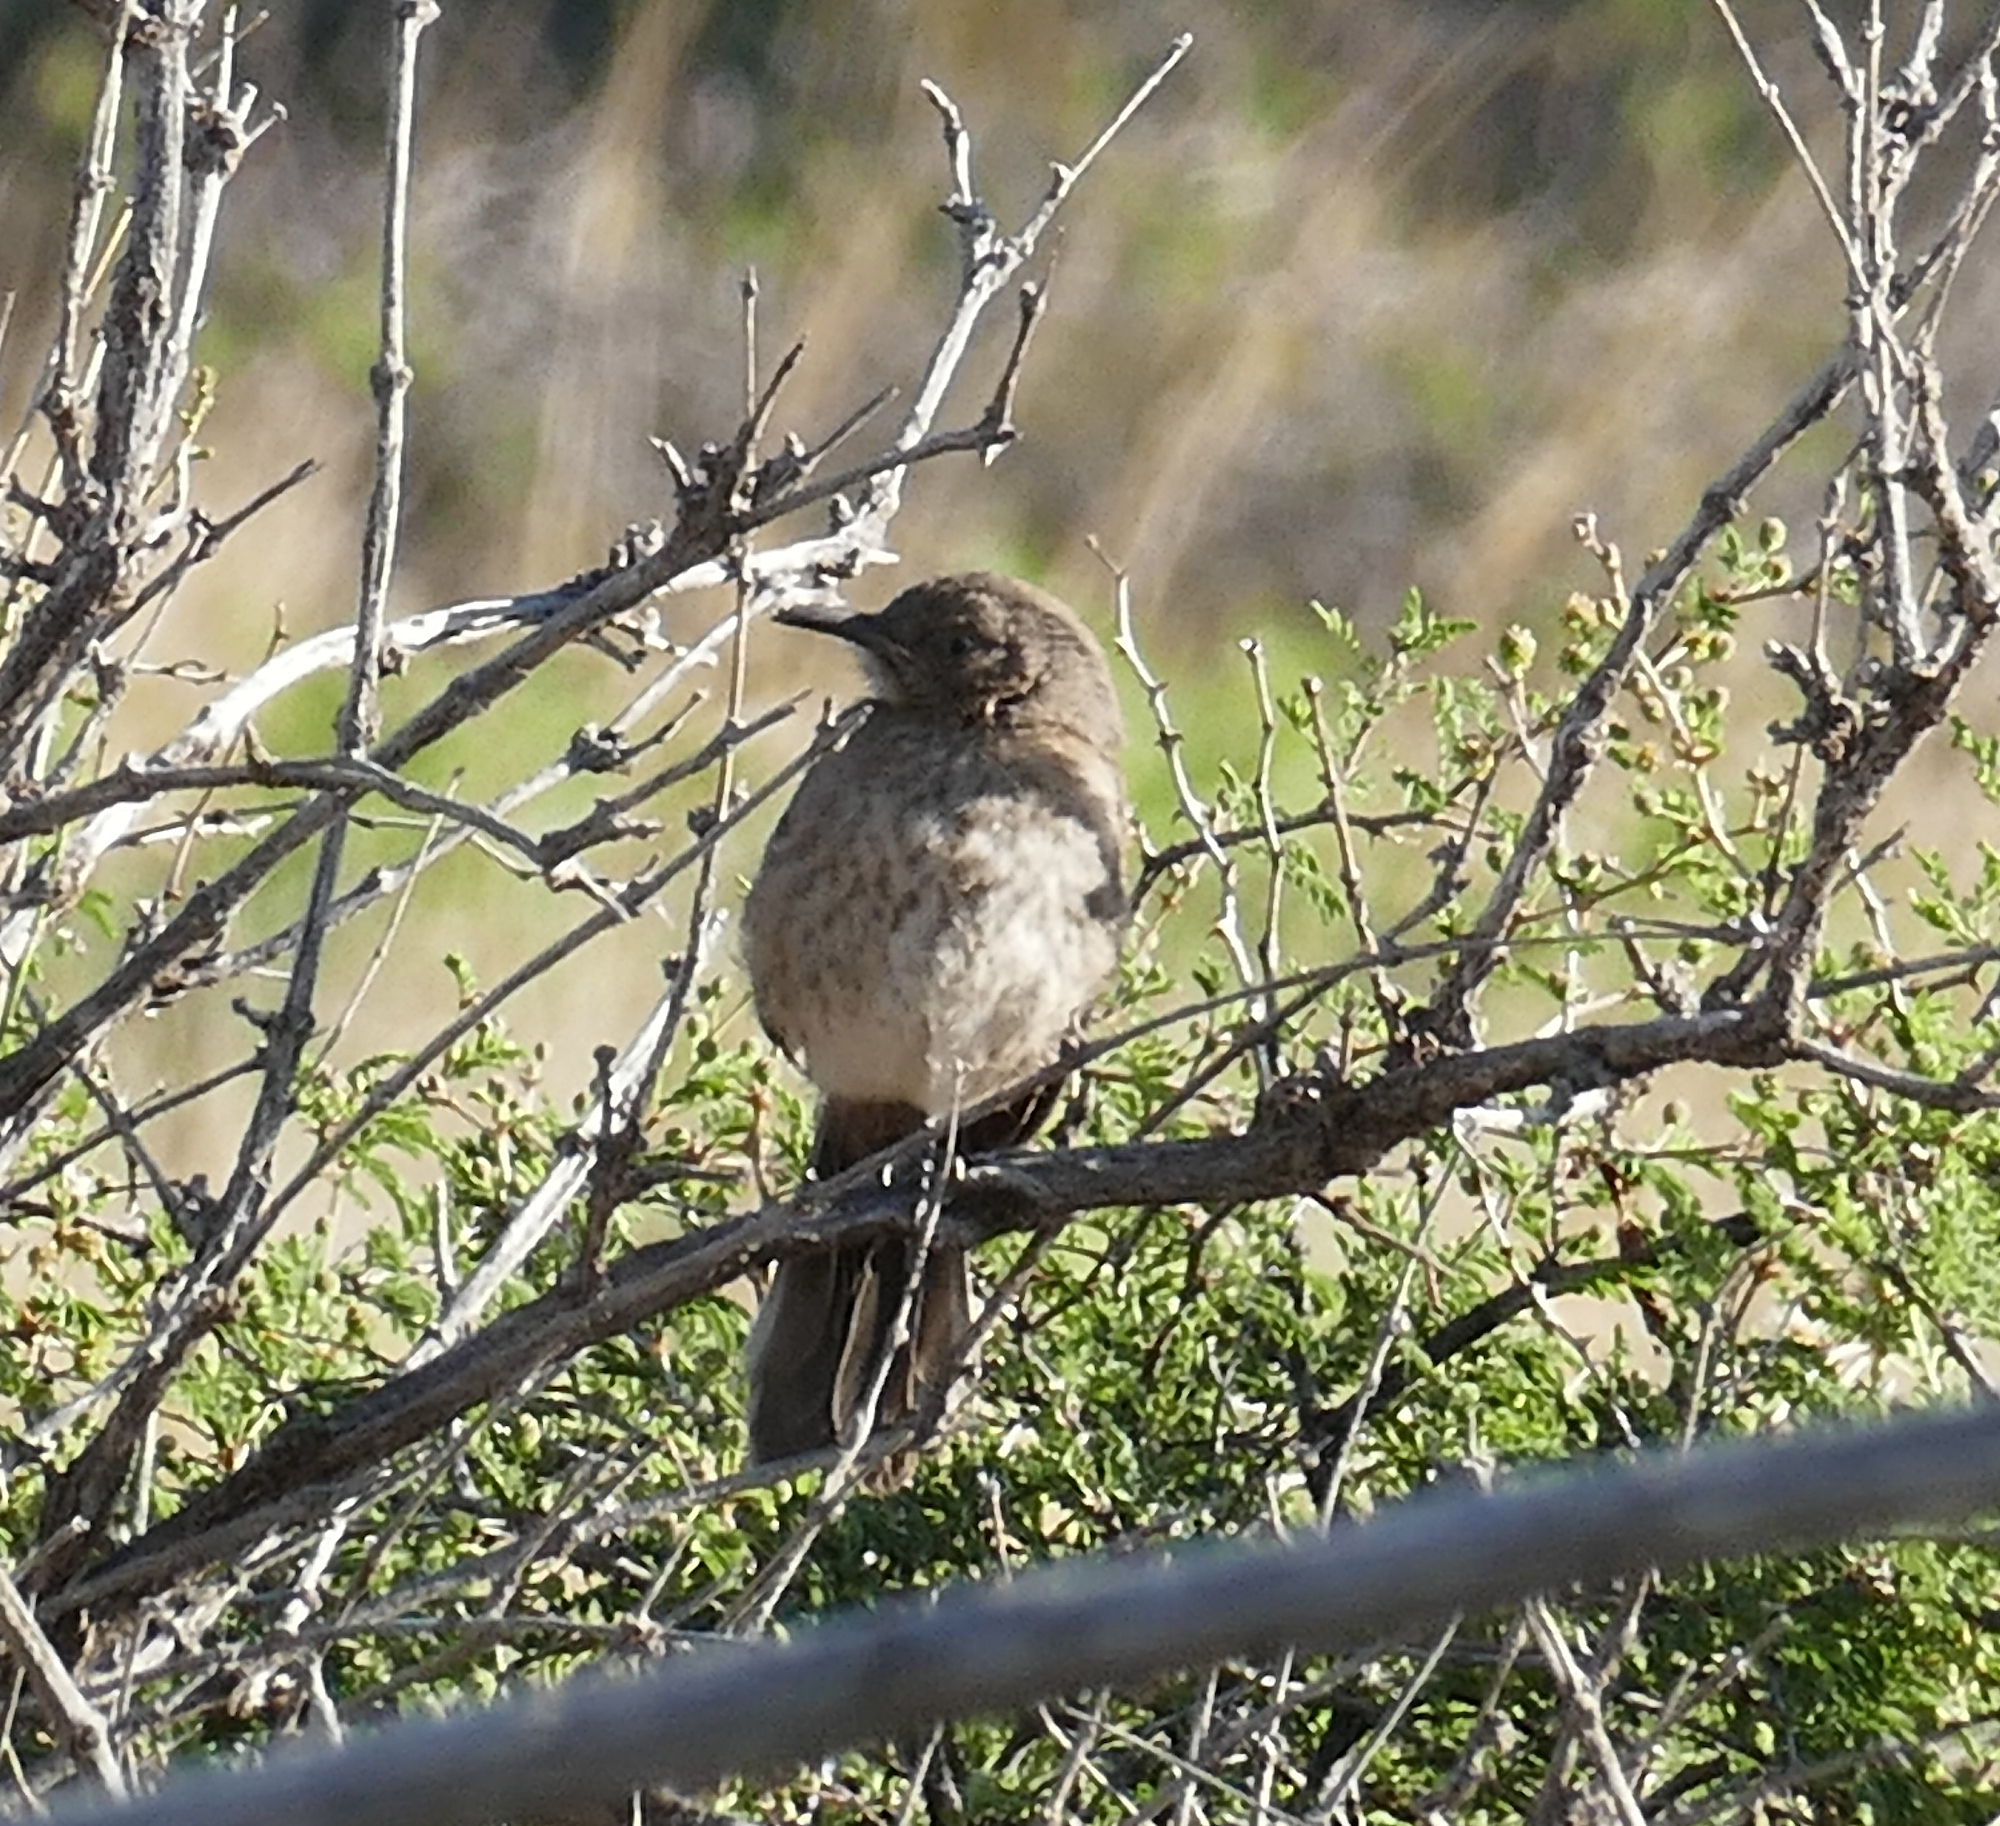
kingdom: Animalia
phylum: Chordata
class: Aves
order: Passeriformes
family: Mimidae
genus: Toxostoma
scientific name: Toxostoma bendirei
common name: Bendire's thrasher
